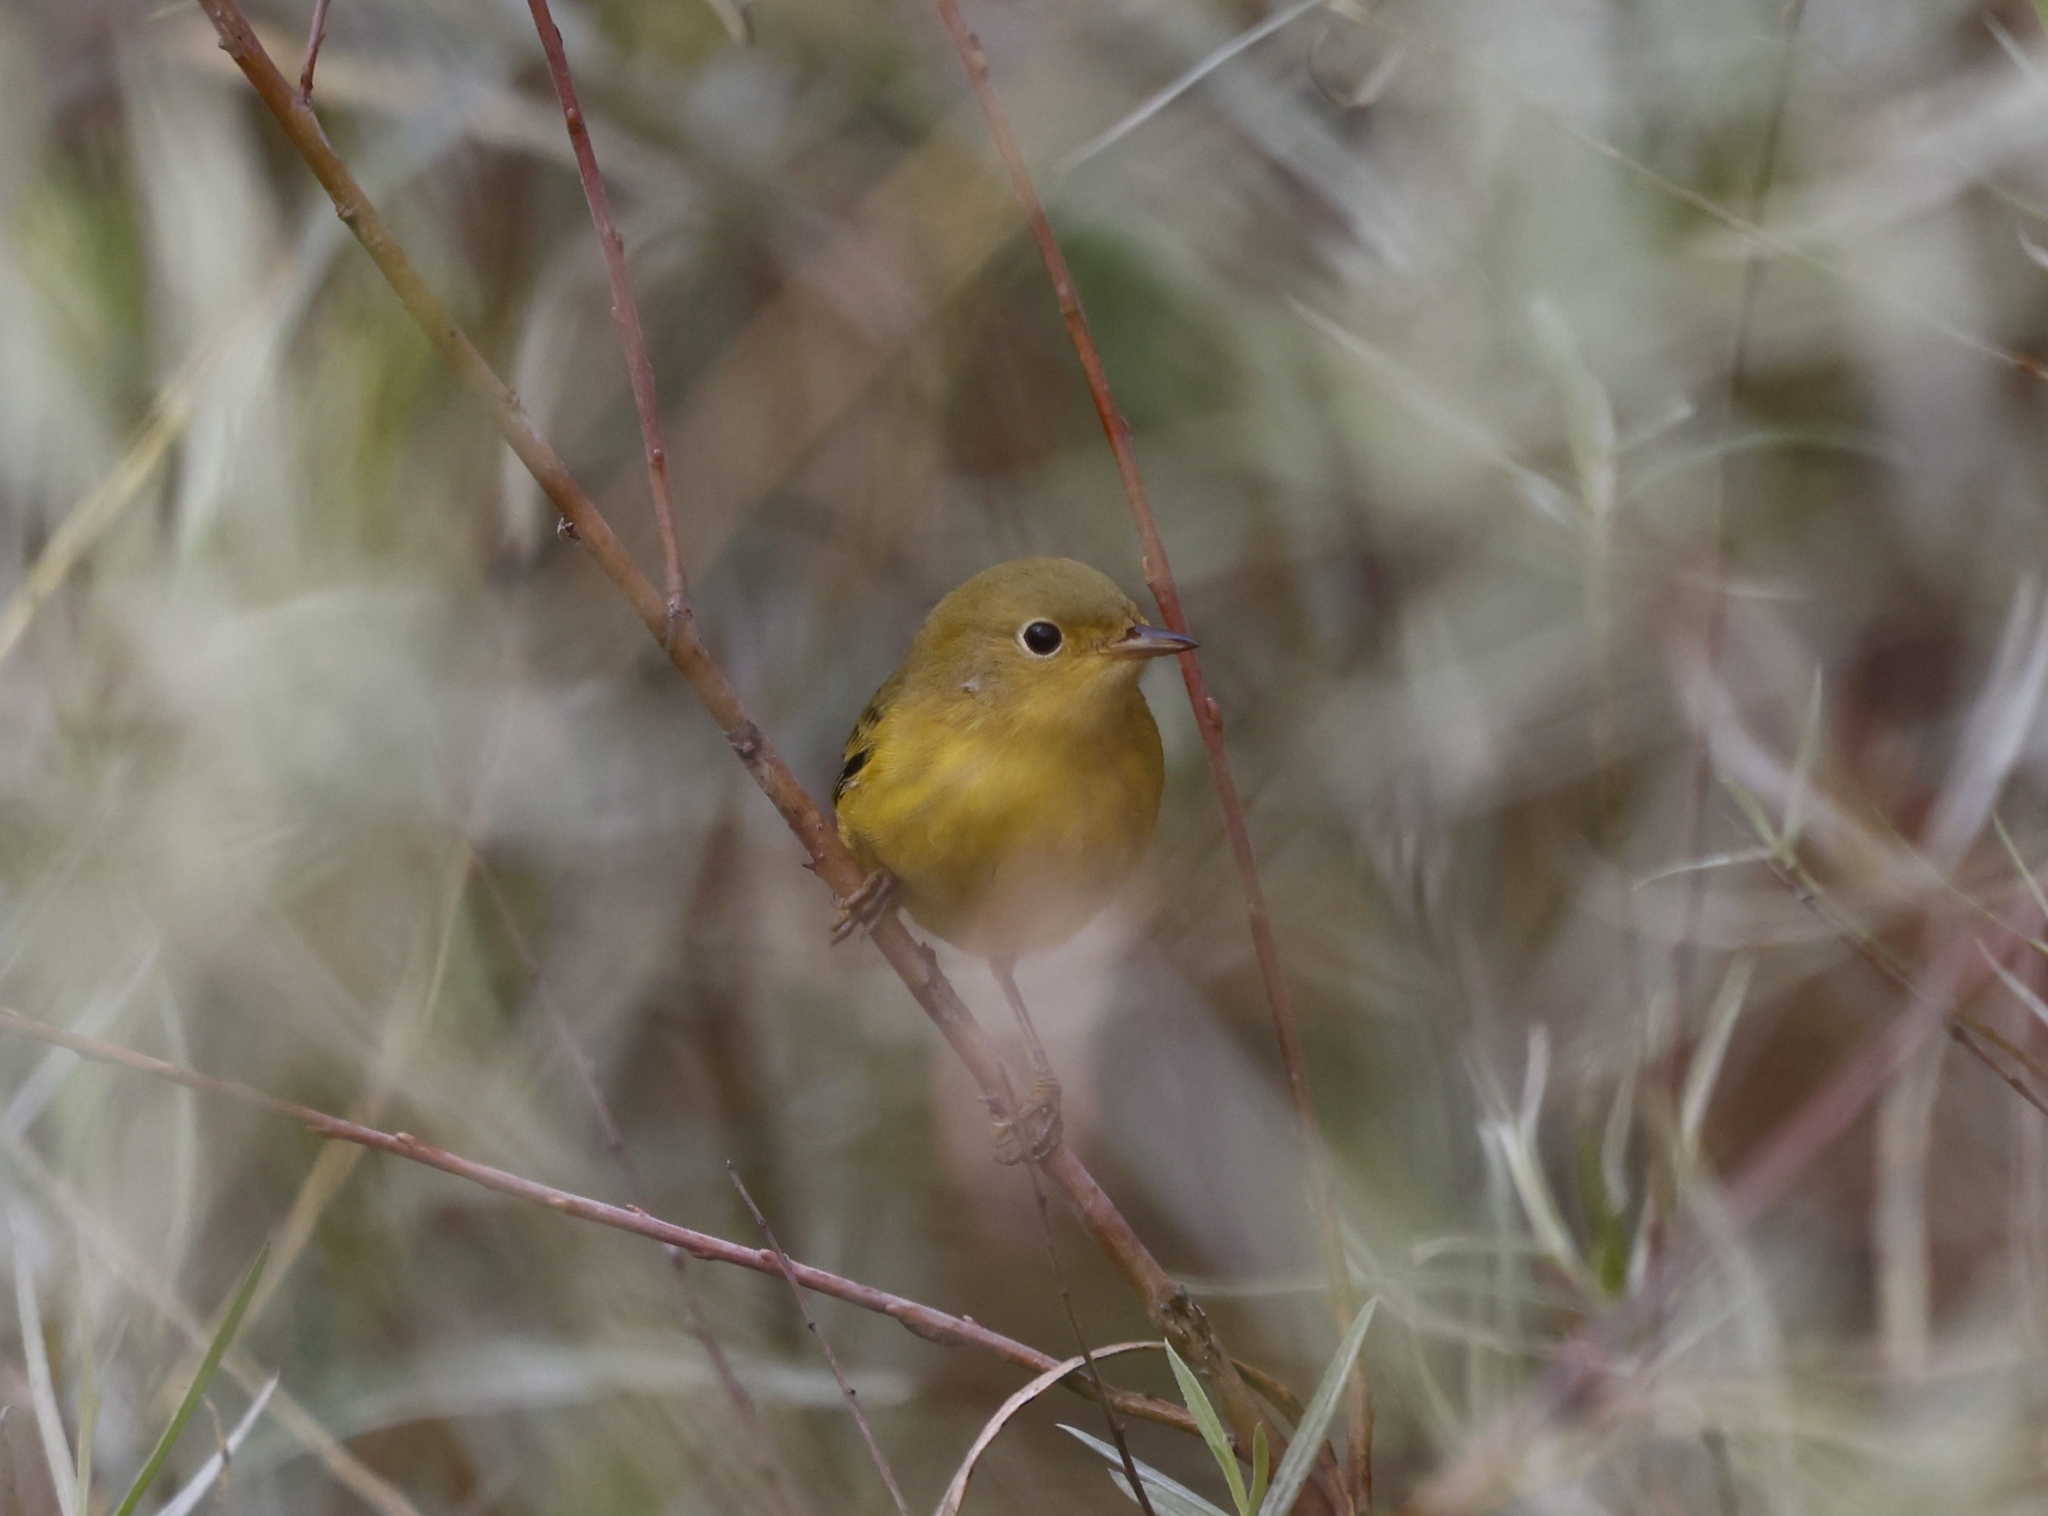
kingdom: Animalia
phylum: Chordata
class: Aves
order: Passeriformes
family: Parulidae
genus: Setophaga
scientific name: Setophaga petechia
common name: Yellow warbler
